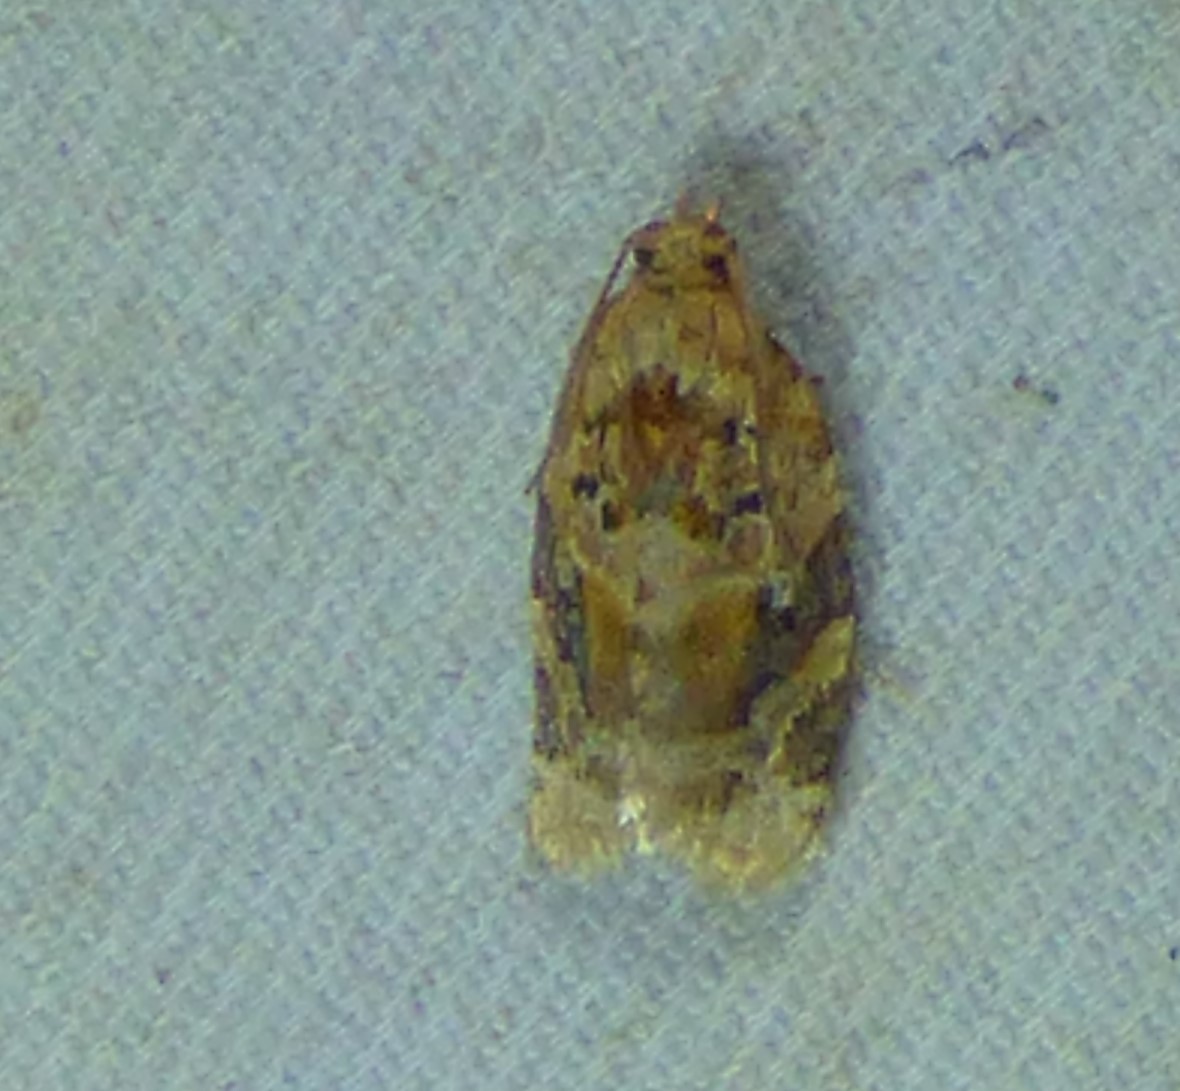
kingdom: Animalia
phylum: Arthropoda
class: Insecta
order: Lepidoptera
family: Tortricidae
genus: Argyrotaenia
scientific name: Argyrotaenia velutinana
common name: Red-banded leafroller moth
